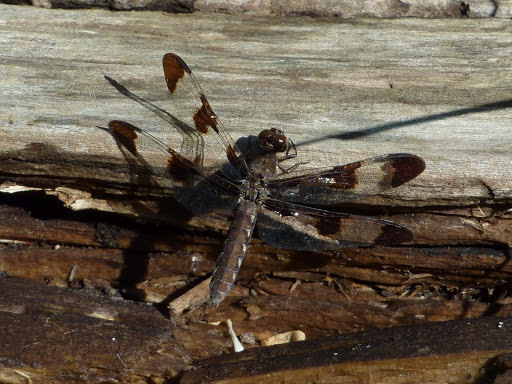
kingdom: Animalia
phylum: Arthropoda
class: Insecta
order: Odonata
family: Libellulidae
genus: Plathemis
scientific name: Plathemis lydia
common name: Common whitetail
